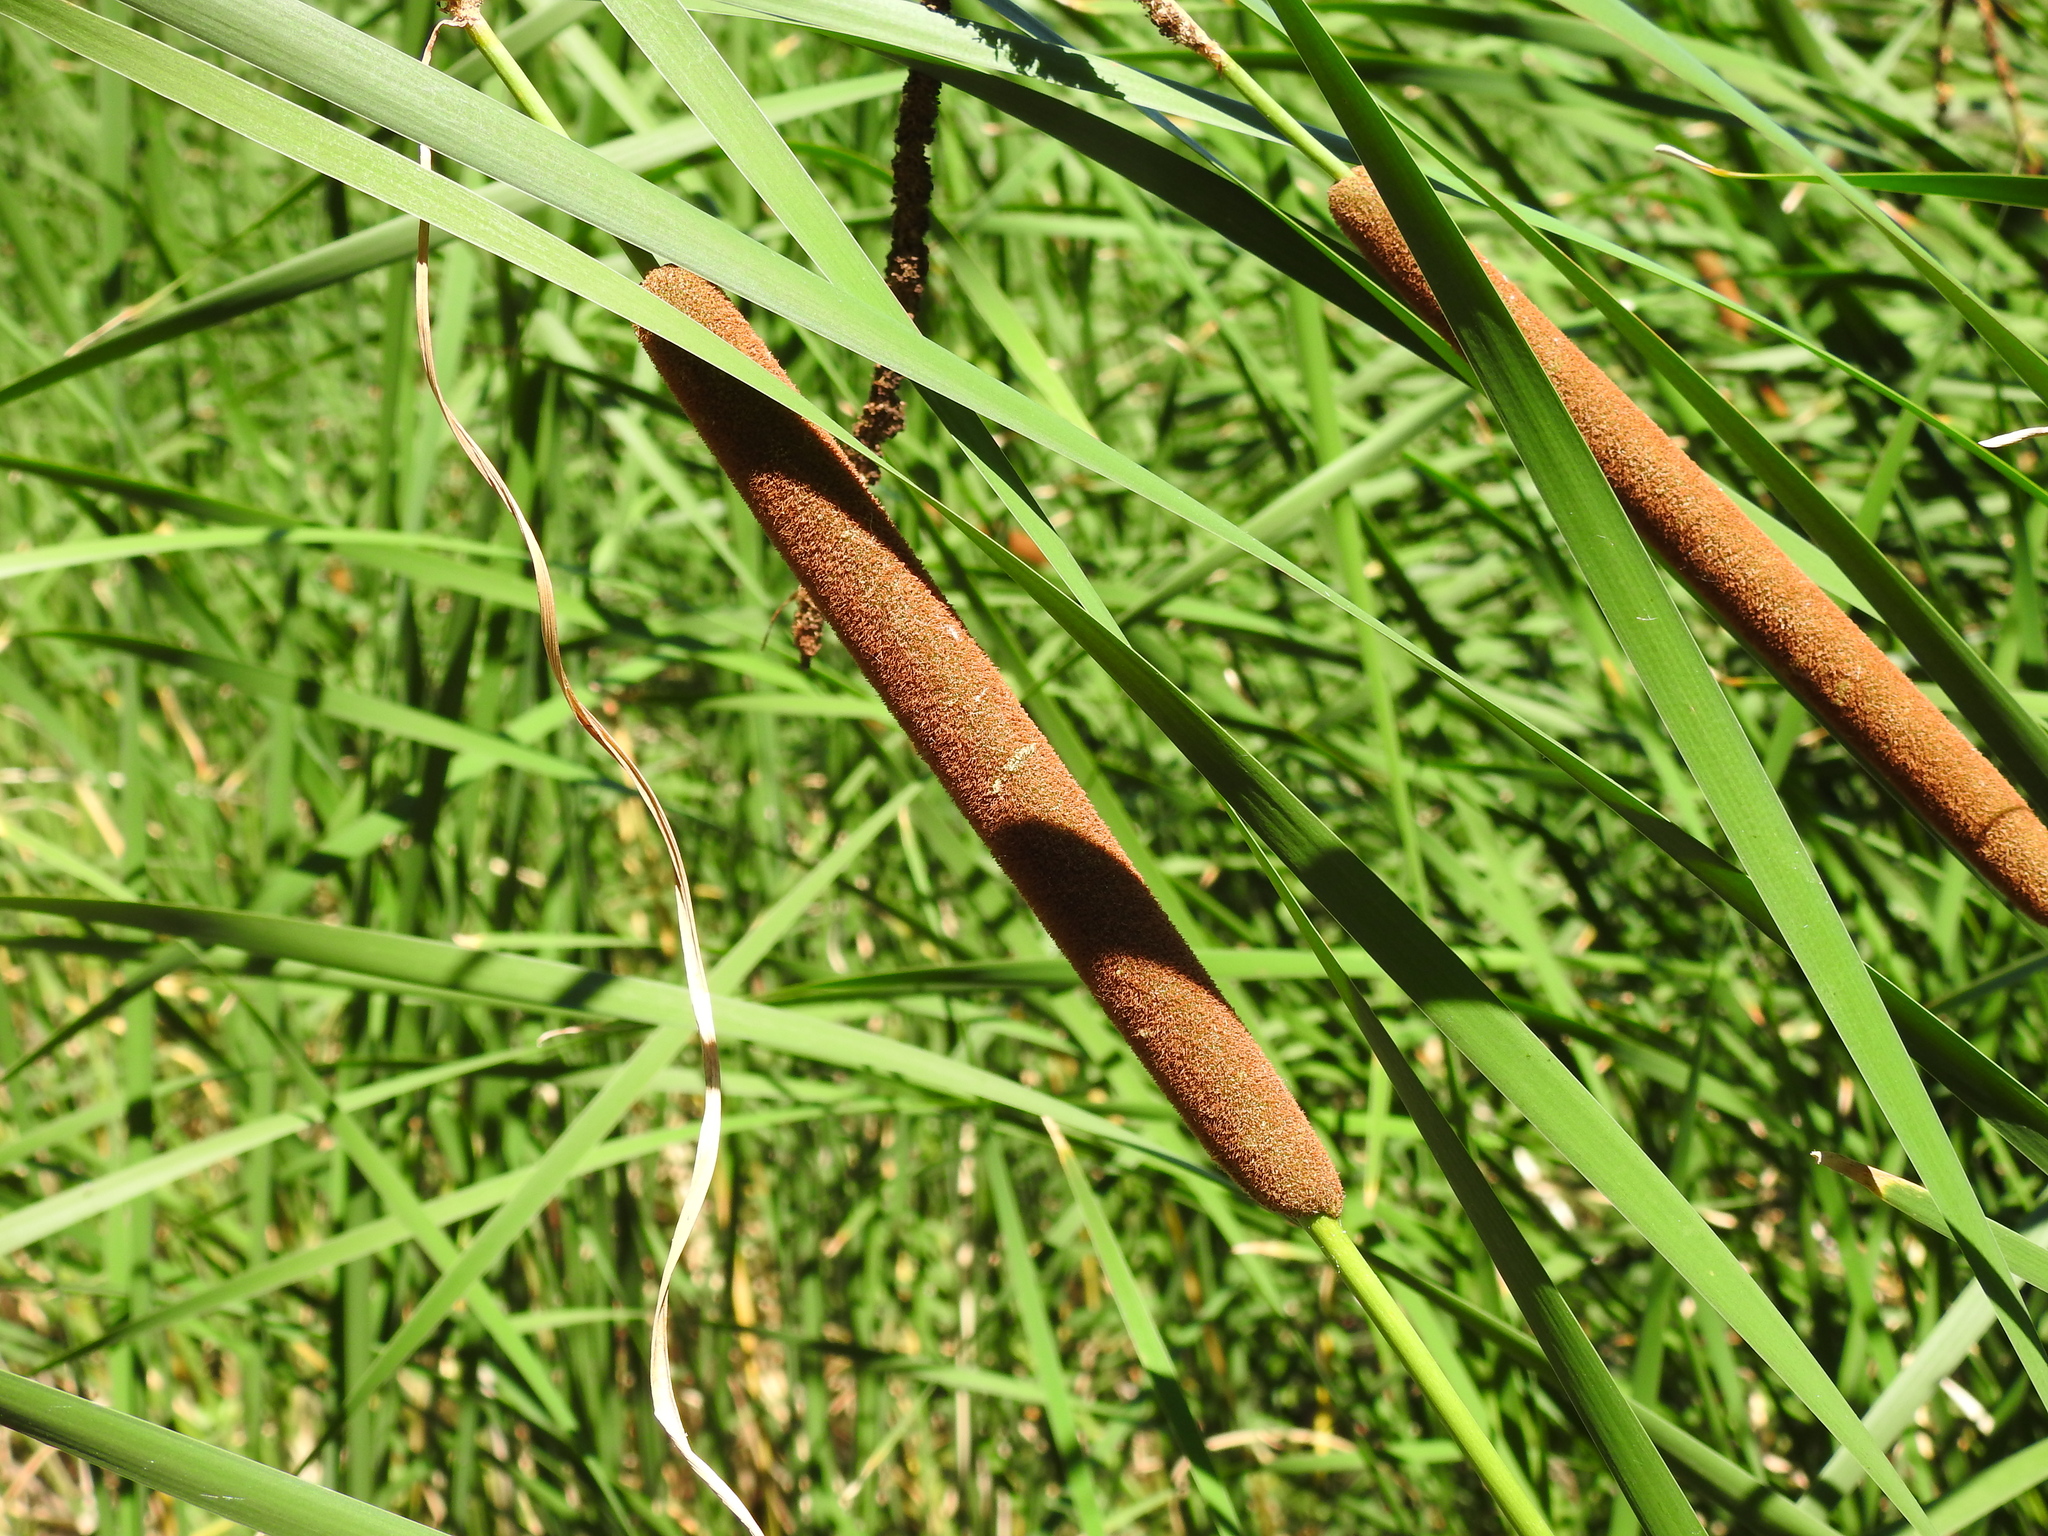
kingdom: Plantae
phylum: Tracheophyta
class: Liliopsida
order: Poales
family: Typhaceae
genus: Typha
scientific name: Typha angustifolia
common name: Lesser bulrush
